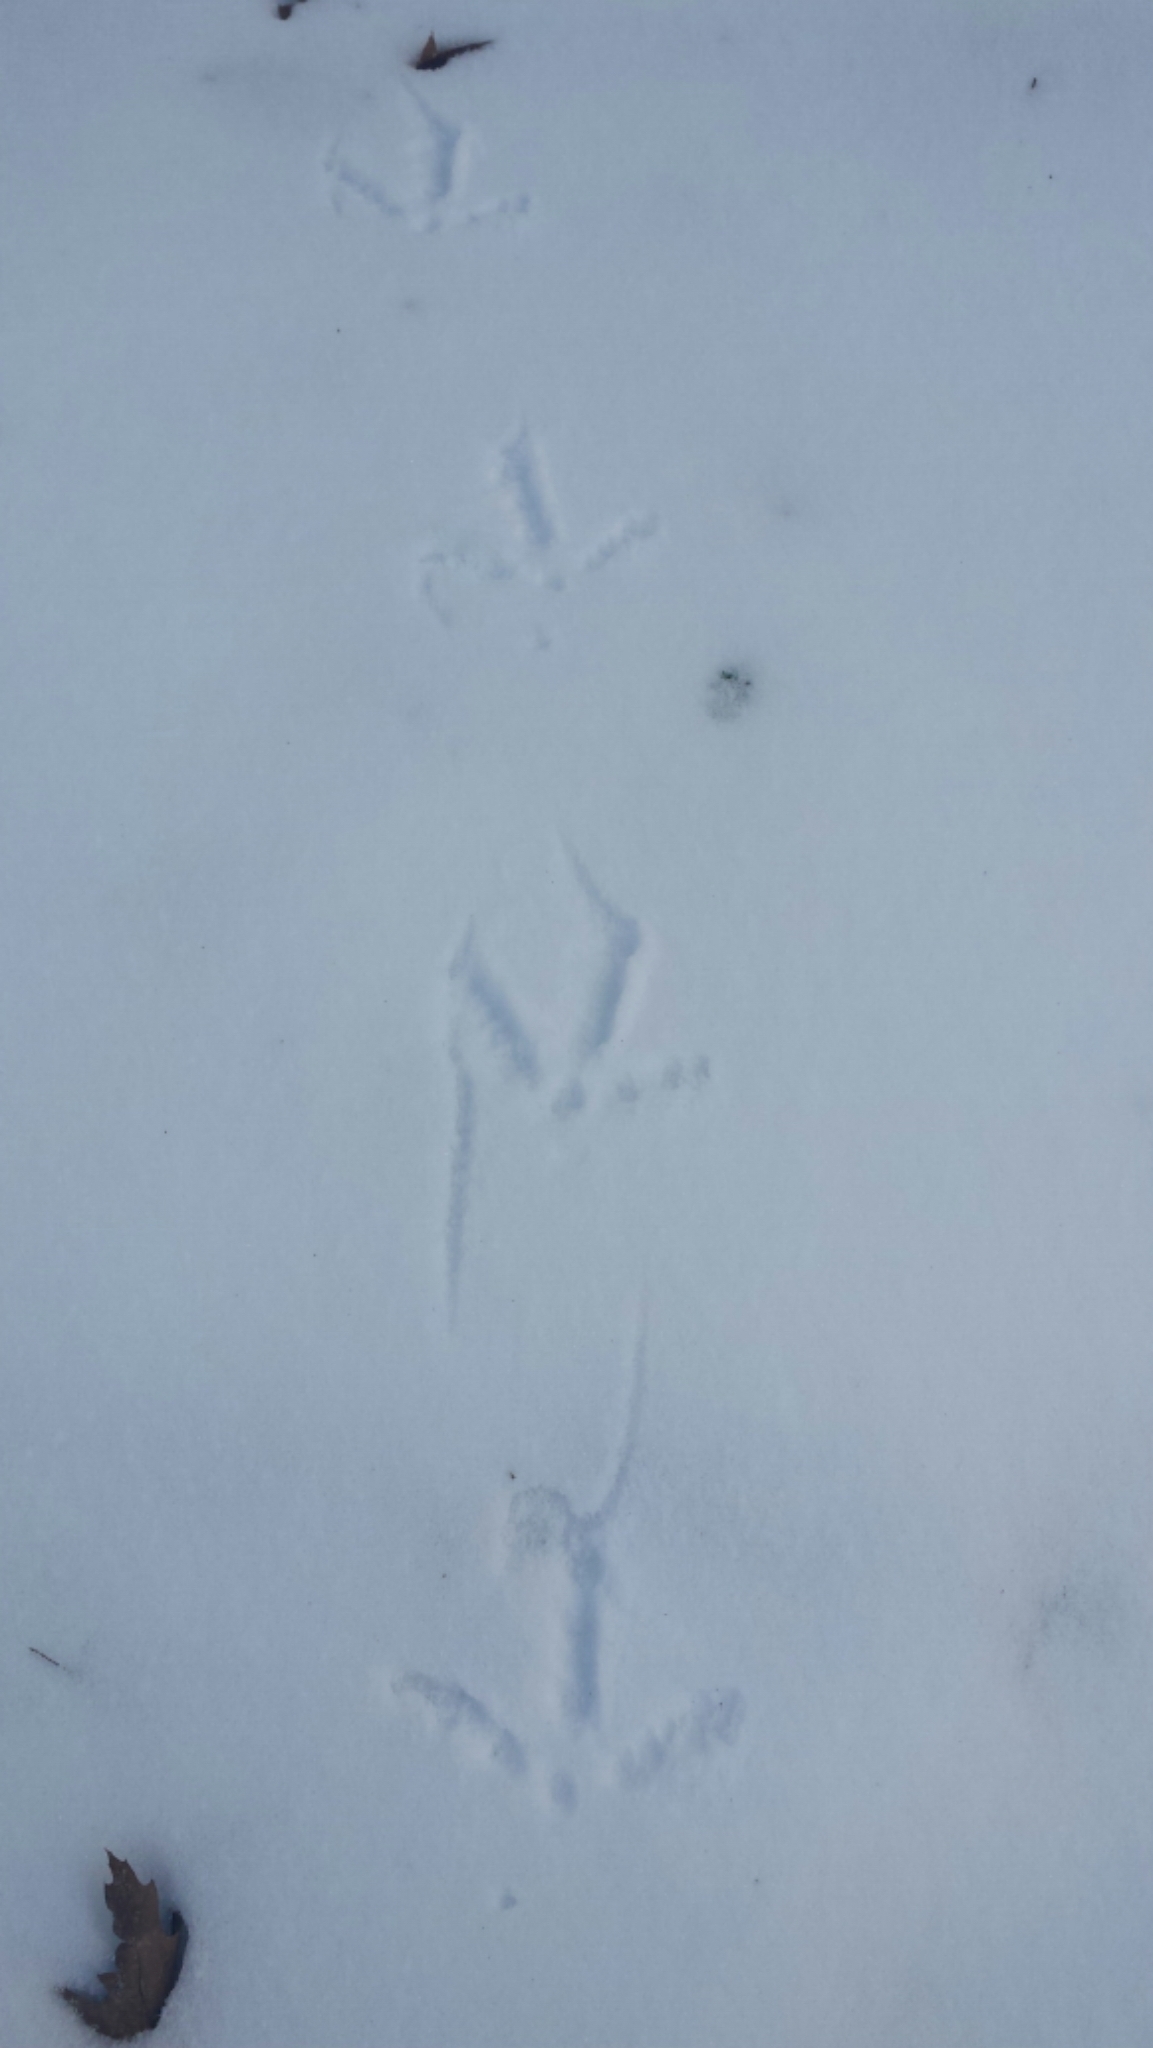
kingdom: Animalia
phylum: Chordata
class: Aves
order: Galliformes
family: Phasianidae
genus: Meleagris
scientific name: Meleagris gallopavo
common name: Wild turkey
